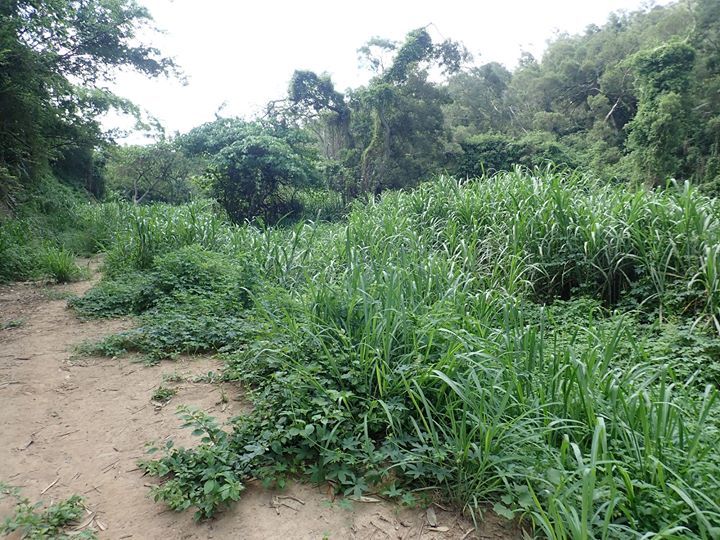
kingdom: Plantae
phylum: Tracheophyta
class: Liliopsida
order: Poales
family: Poaceae
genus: Cenchrus
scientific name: Cenchrus purpureus
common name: Elephant grass
